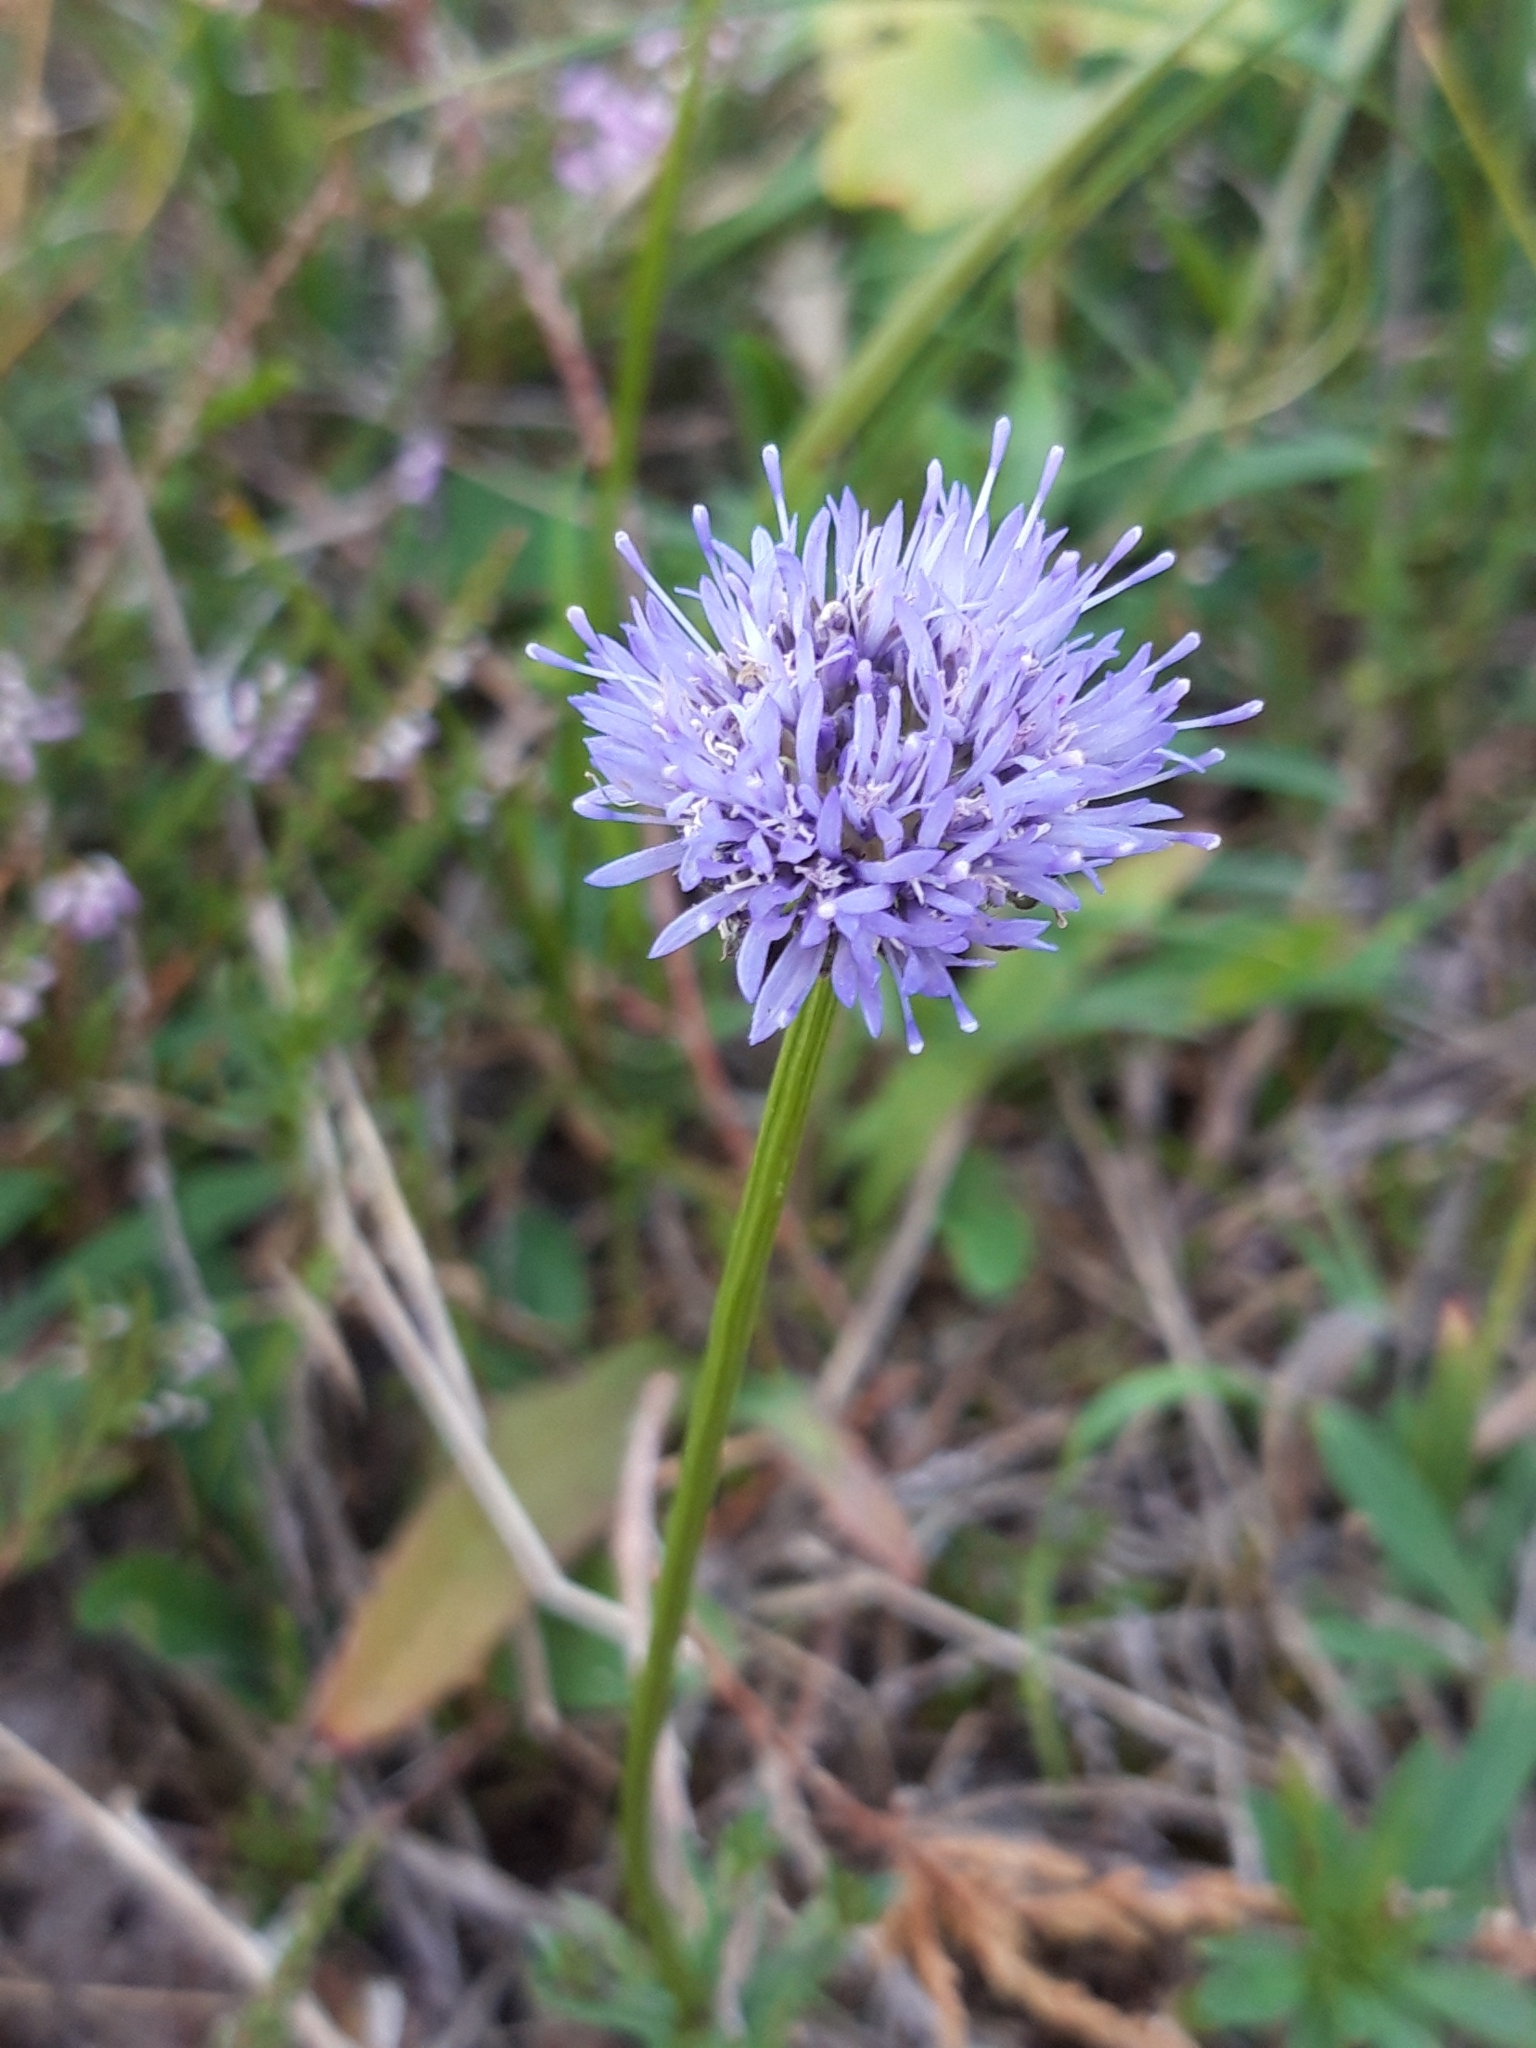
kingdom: Plantae
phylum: Tracheophyta
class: Magnoliopsida
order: Asterales
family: Campanulaceae
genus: Jasione
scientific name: Jasione montana
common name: Sheep's-bit
